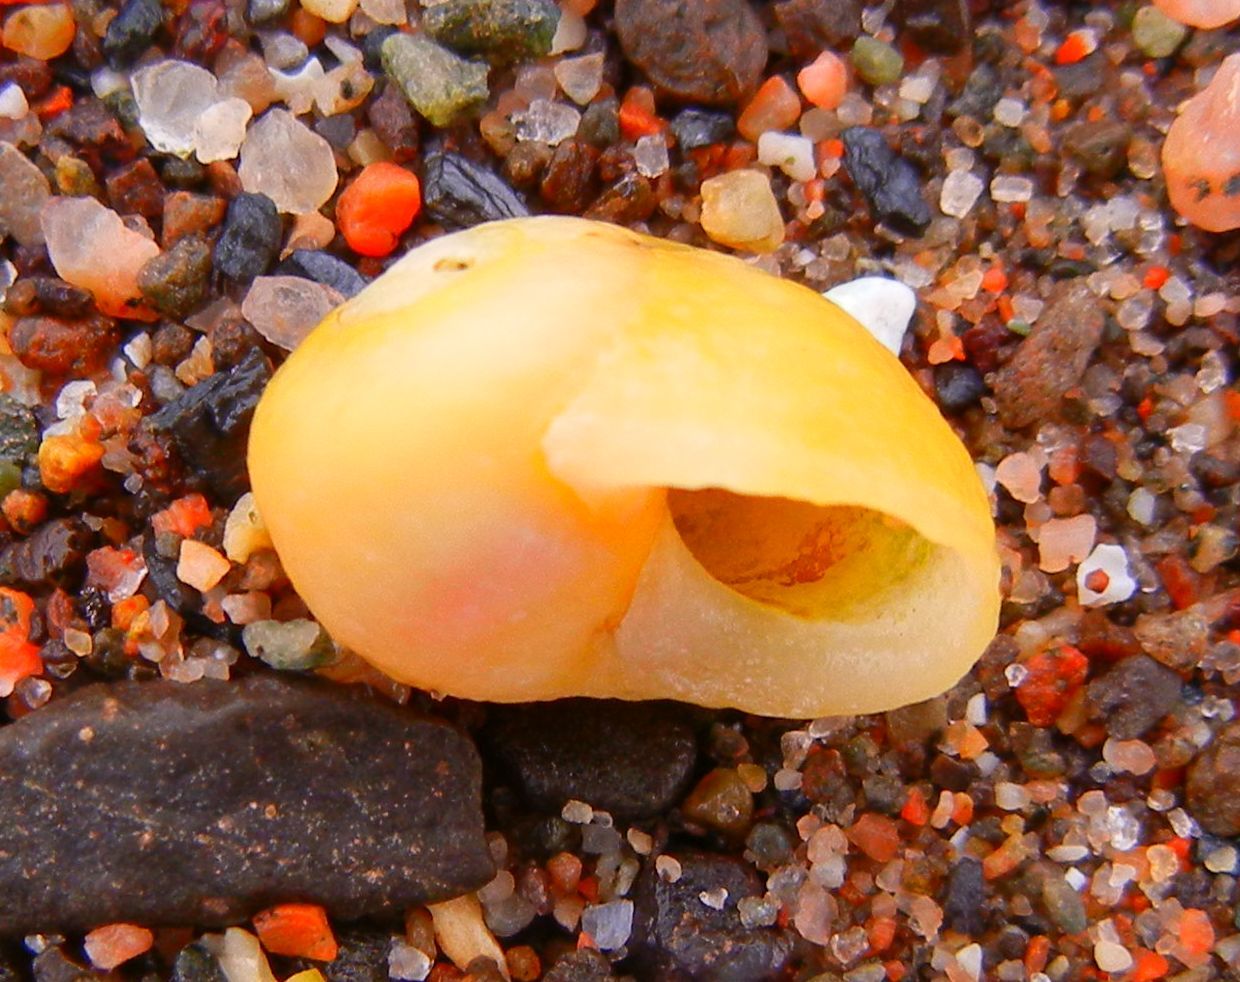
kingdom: Animalia
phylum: Mollusca
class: Gastropoda
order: Littorinimorpha
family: Littorinidae
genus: Littorina
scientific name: Littorina
